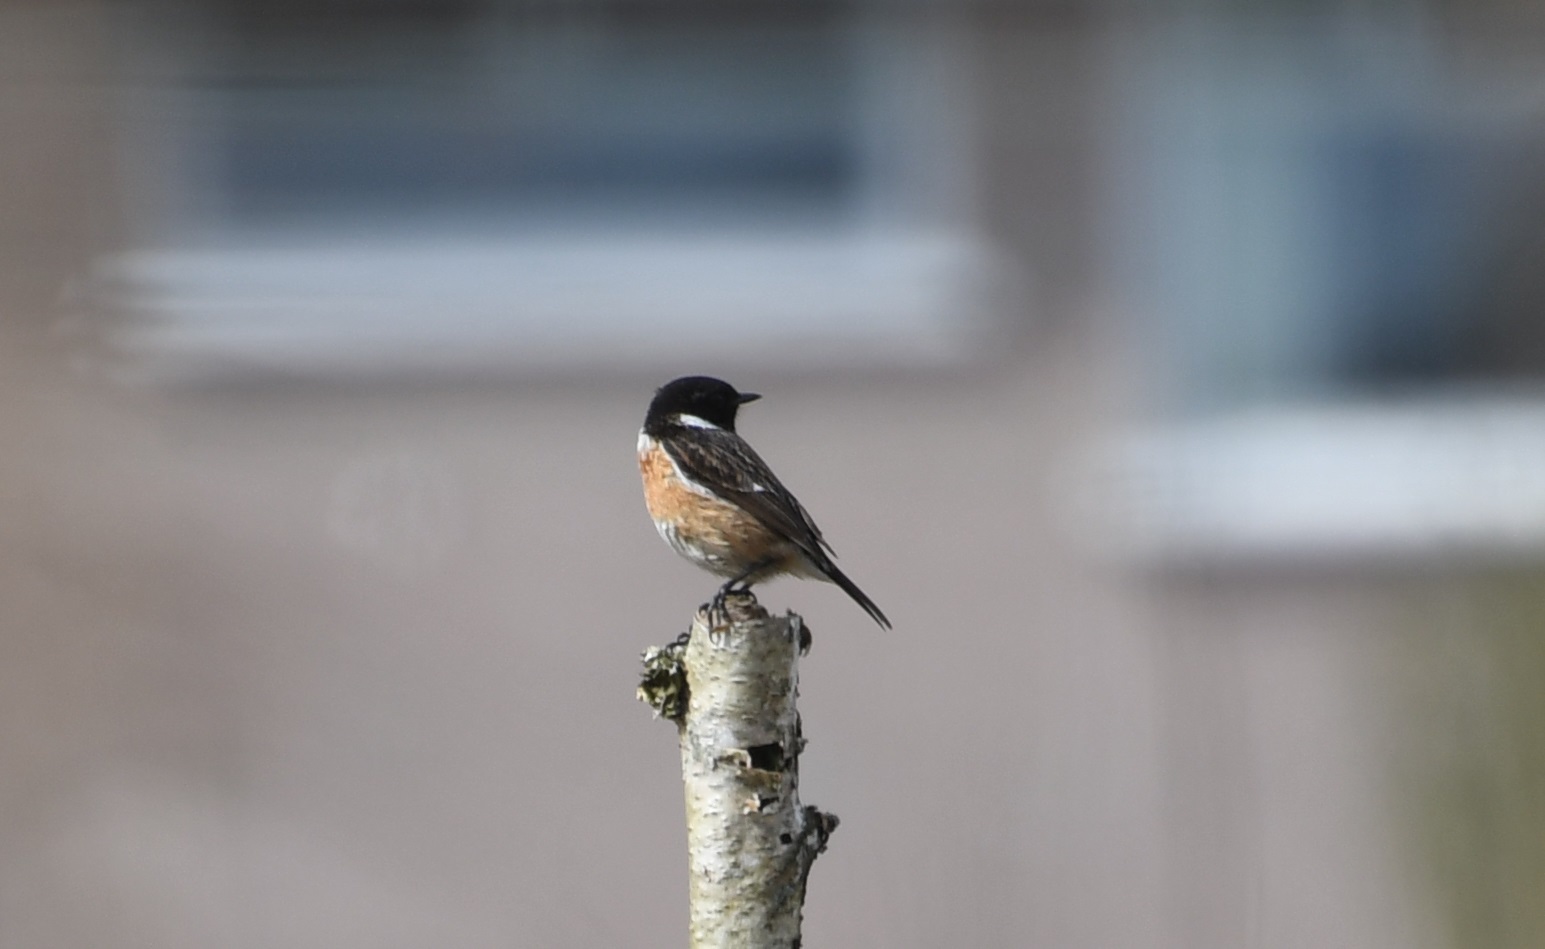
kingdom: Animalia
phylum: Chordata
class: Aves
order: Passeriformes
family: Muscicapidae
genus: Saxicola
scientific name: Saxicola rubicola
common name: European stonechat
